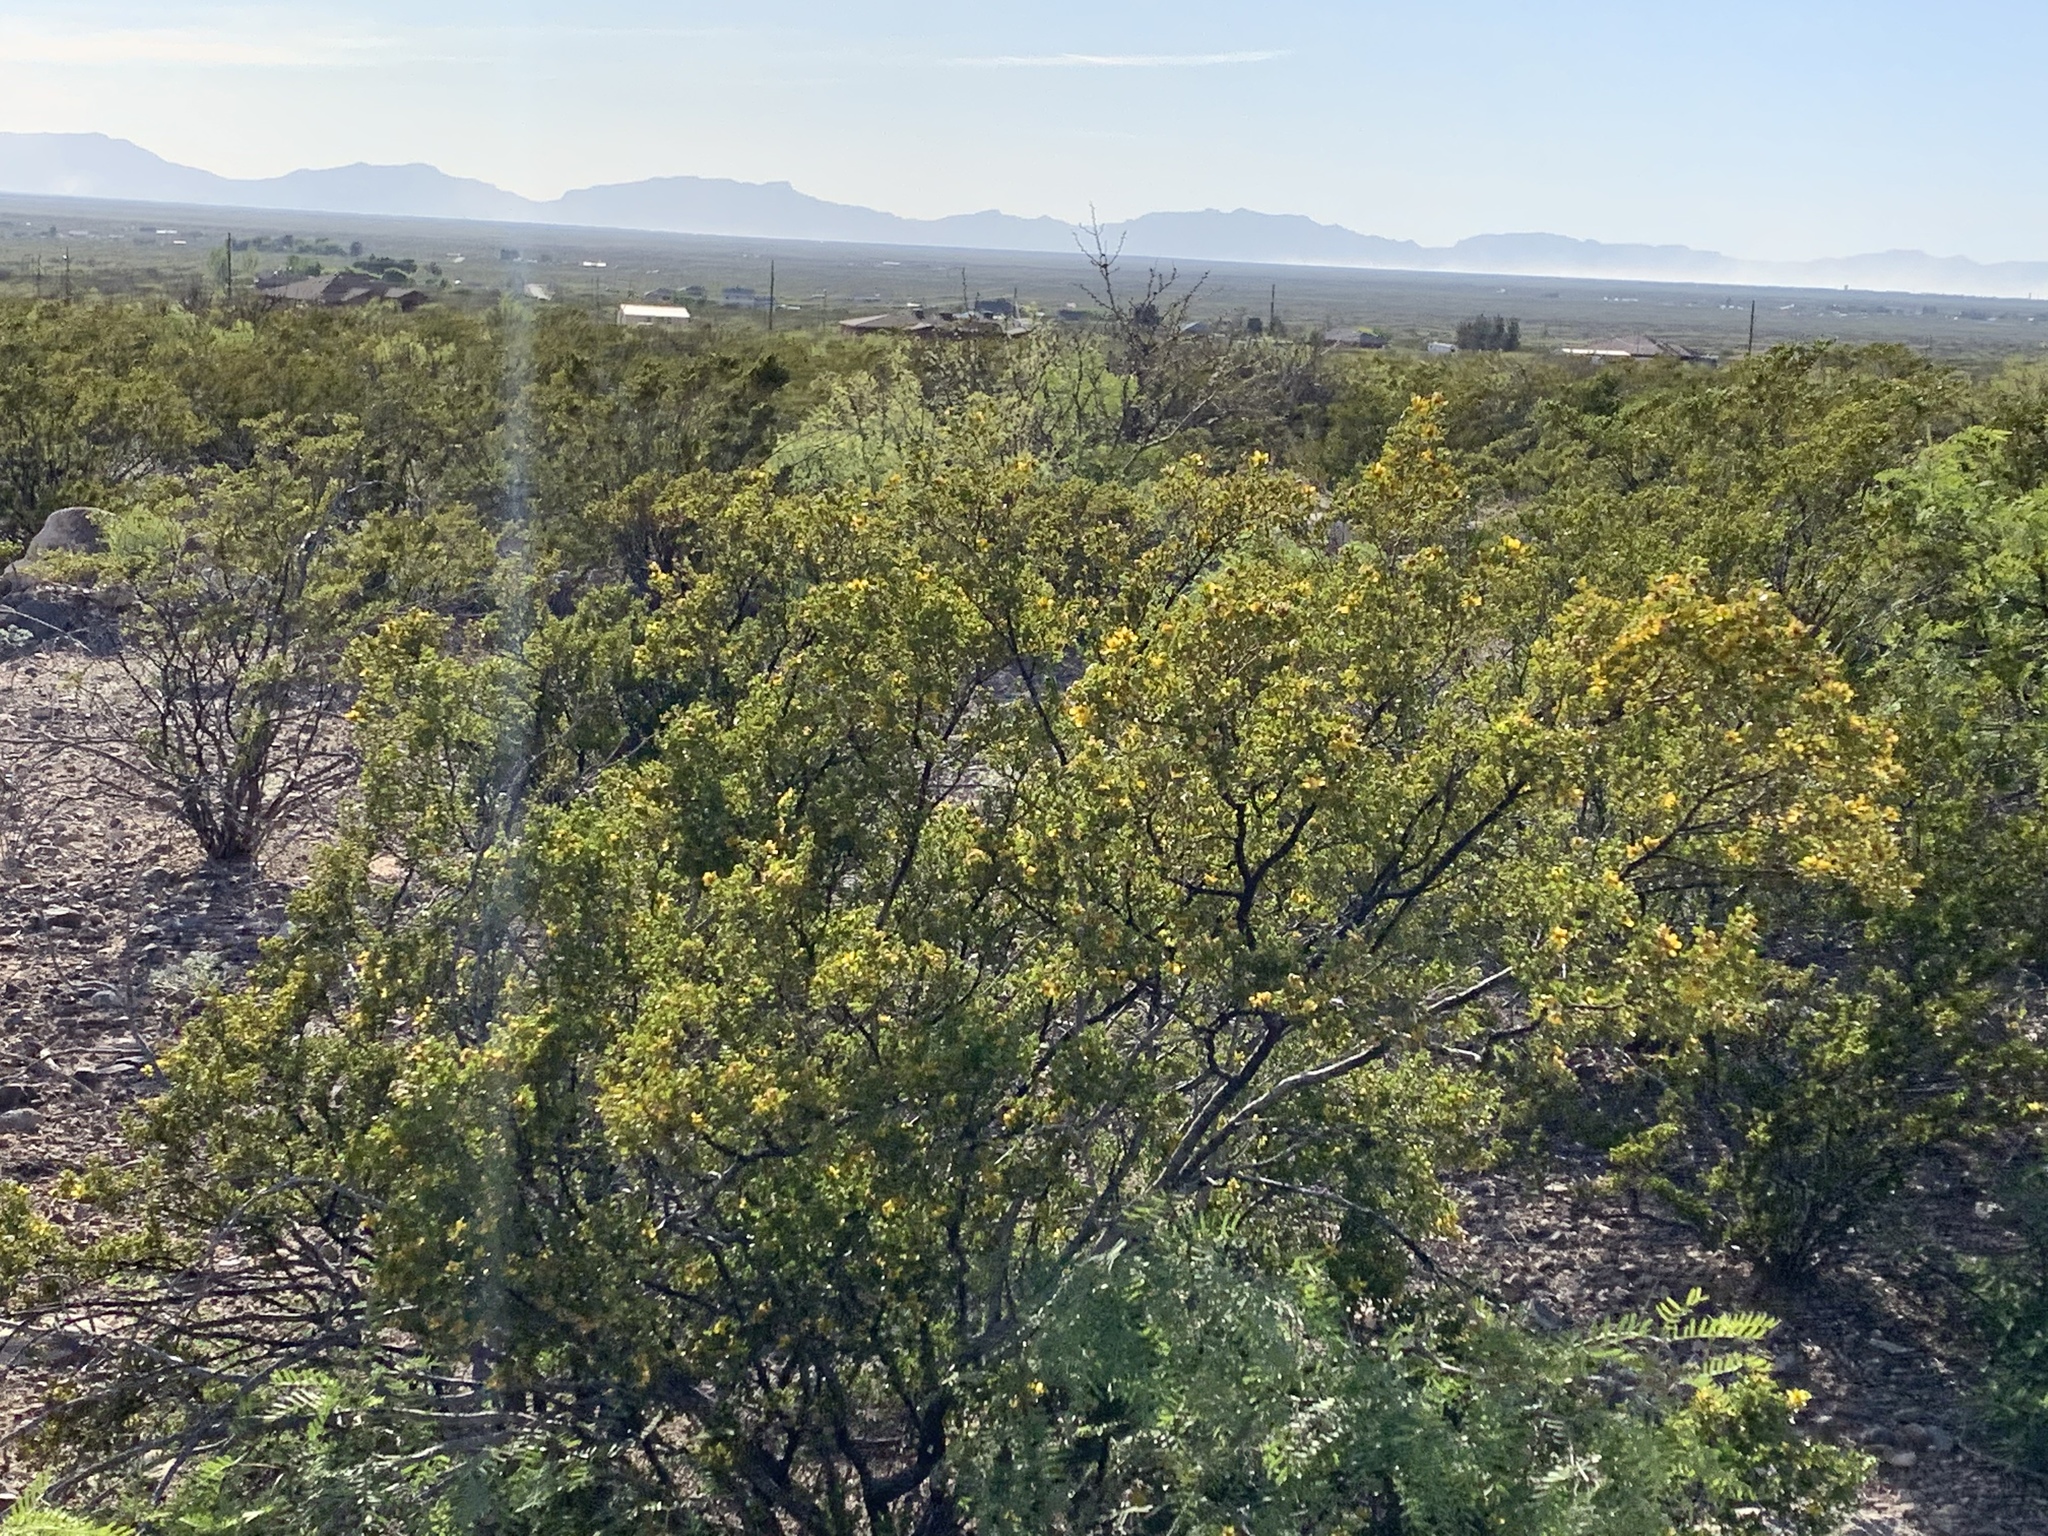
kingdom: Plantae
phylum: Tracheophyta
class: Magnoliopsida
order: Zygophyllales
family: Zygophyllaceae
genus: Larrea
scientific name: Larrea tridentata
